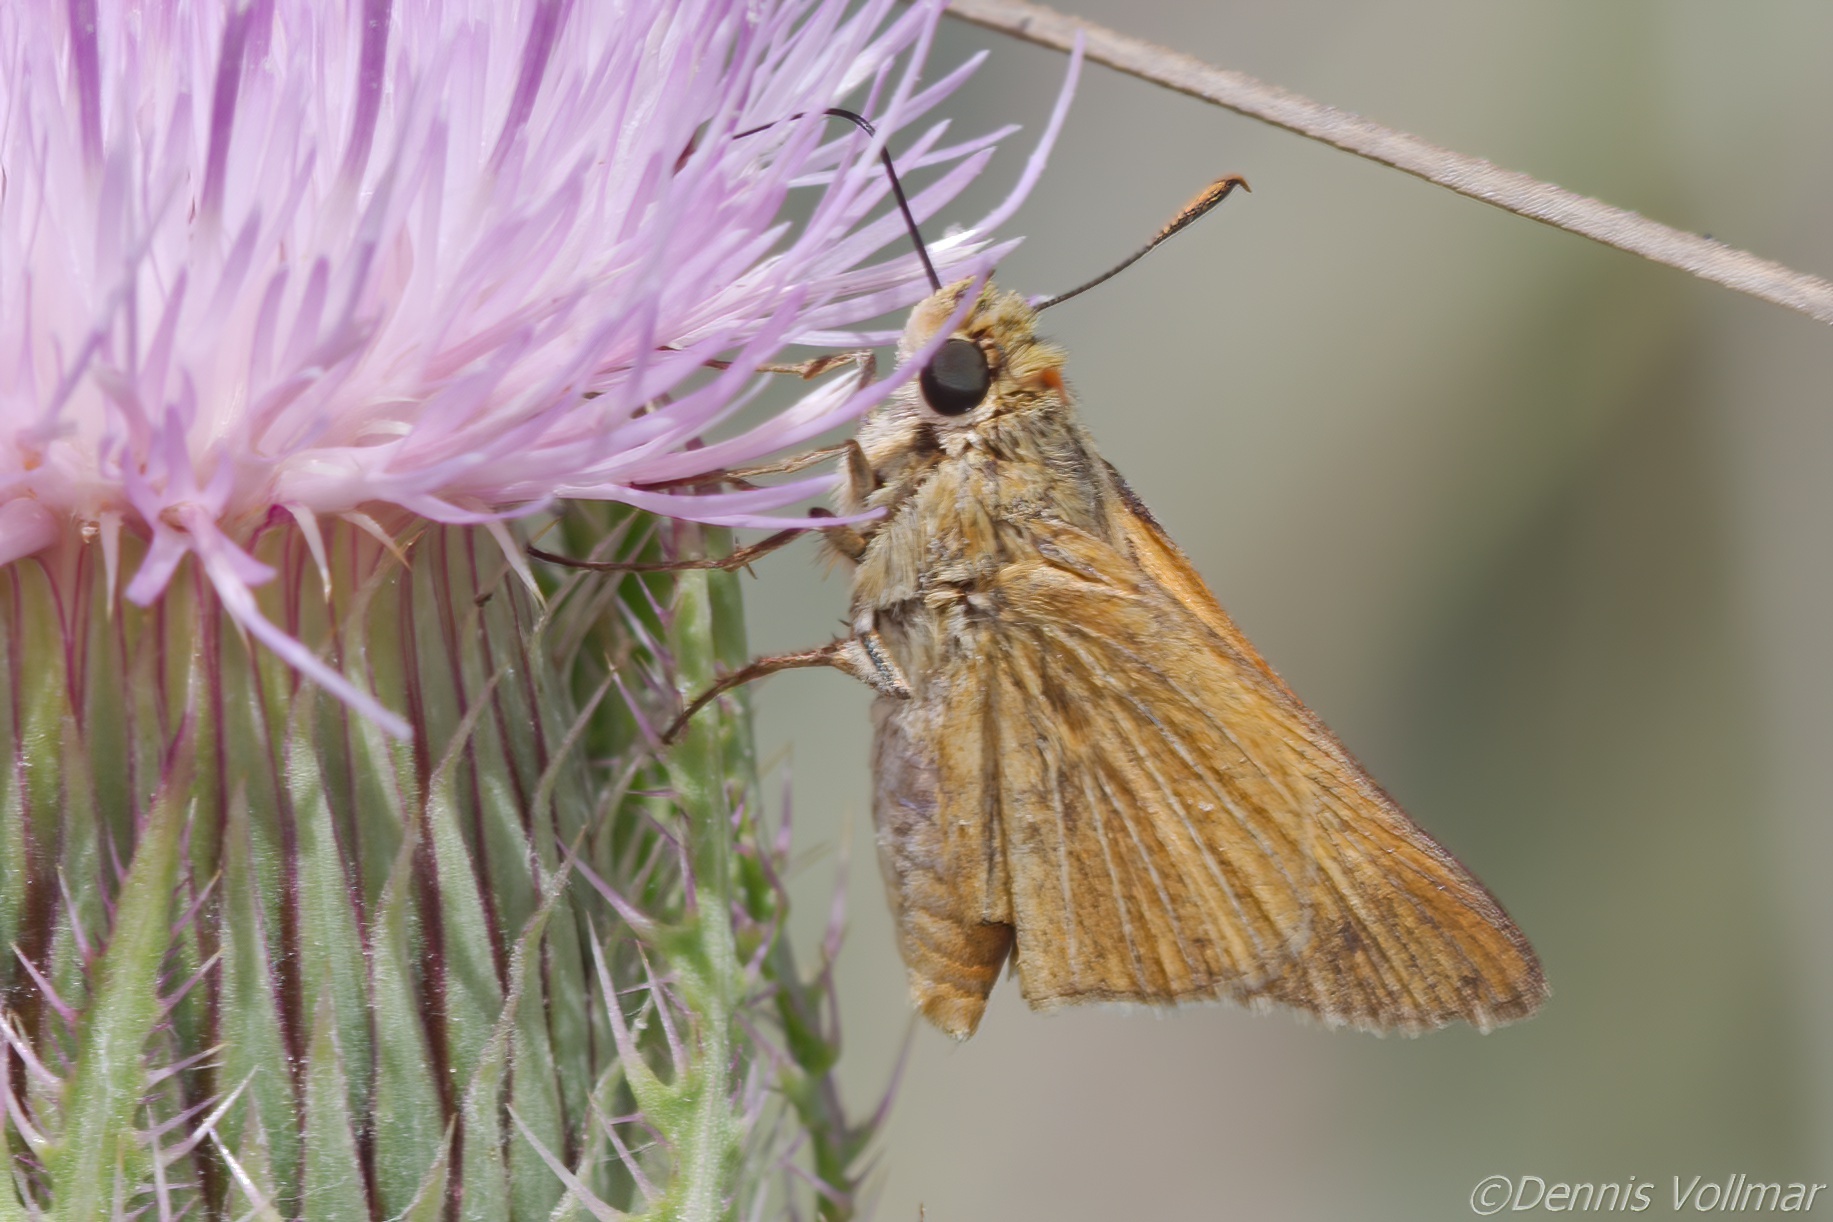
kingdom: Animalia
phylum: Arthropoda
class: Insecta
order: Lepidoptera
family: Hesperiidae
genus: Euphyes
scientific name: Euphyes berryi
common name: Berry's skipper
